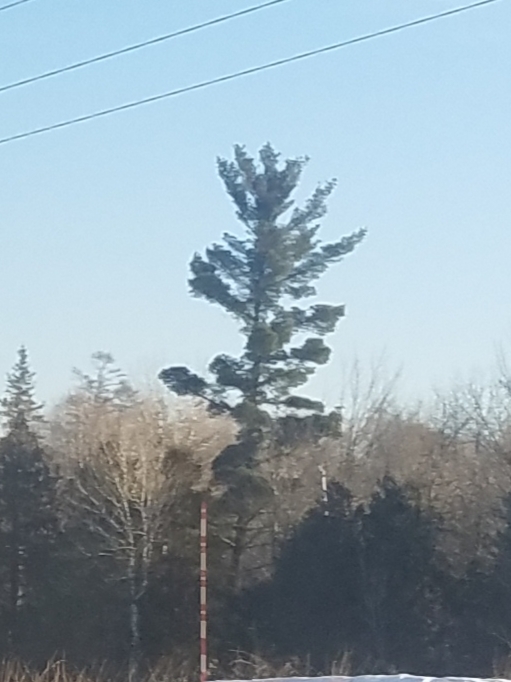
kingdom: Plantae
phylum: Tracheophyta
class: Pinopsida
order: Pinales
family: Pinaceae
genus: Pinus
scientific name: Pinus strobus
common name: Weymouth pine
